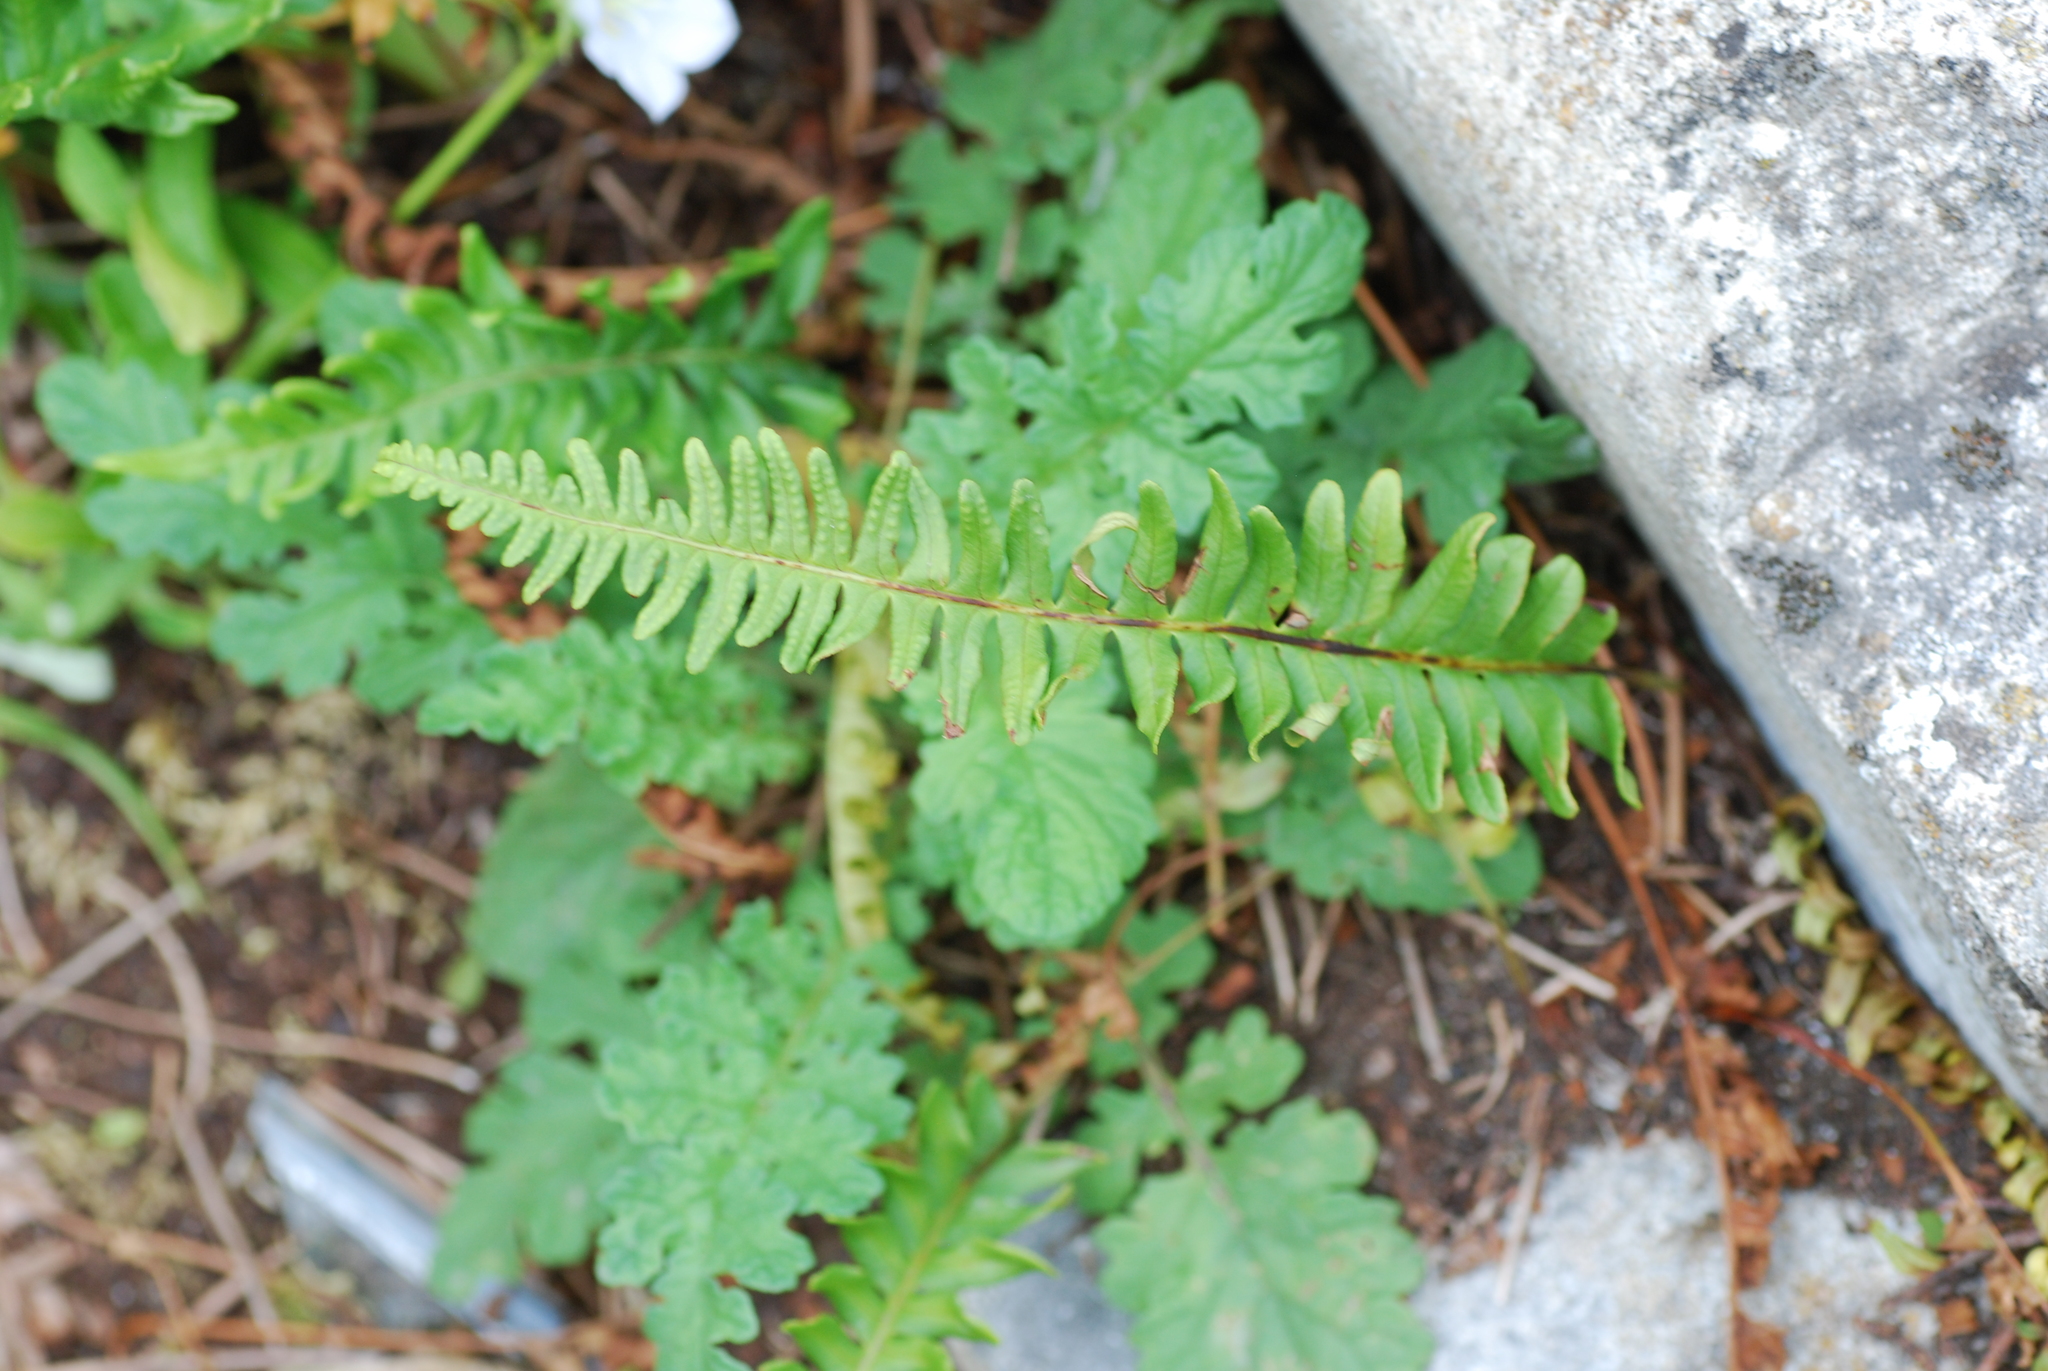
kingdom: Plantae
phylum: Tracheophyta
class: Polypodiopsida
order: Polypodiales
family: Polypodiaceae
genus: Polypodium
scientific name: Polypodium vulgare
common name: Common polypody
